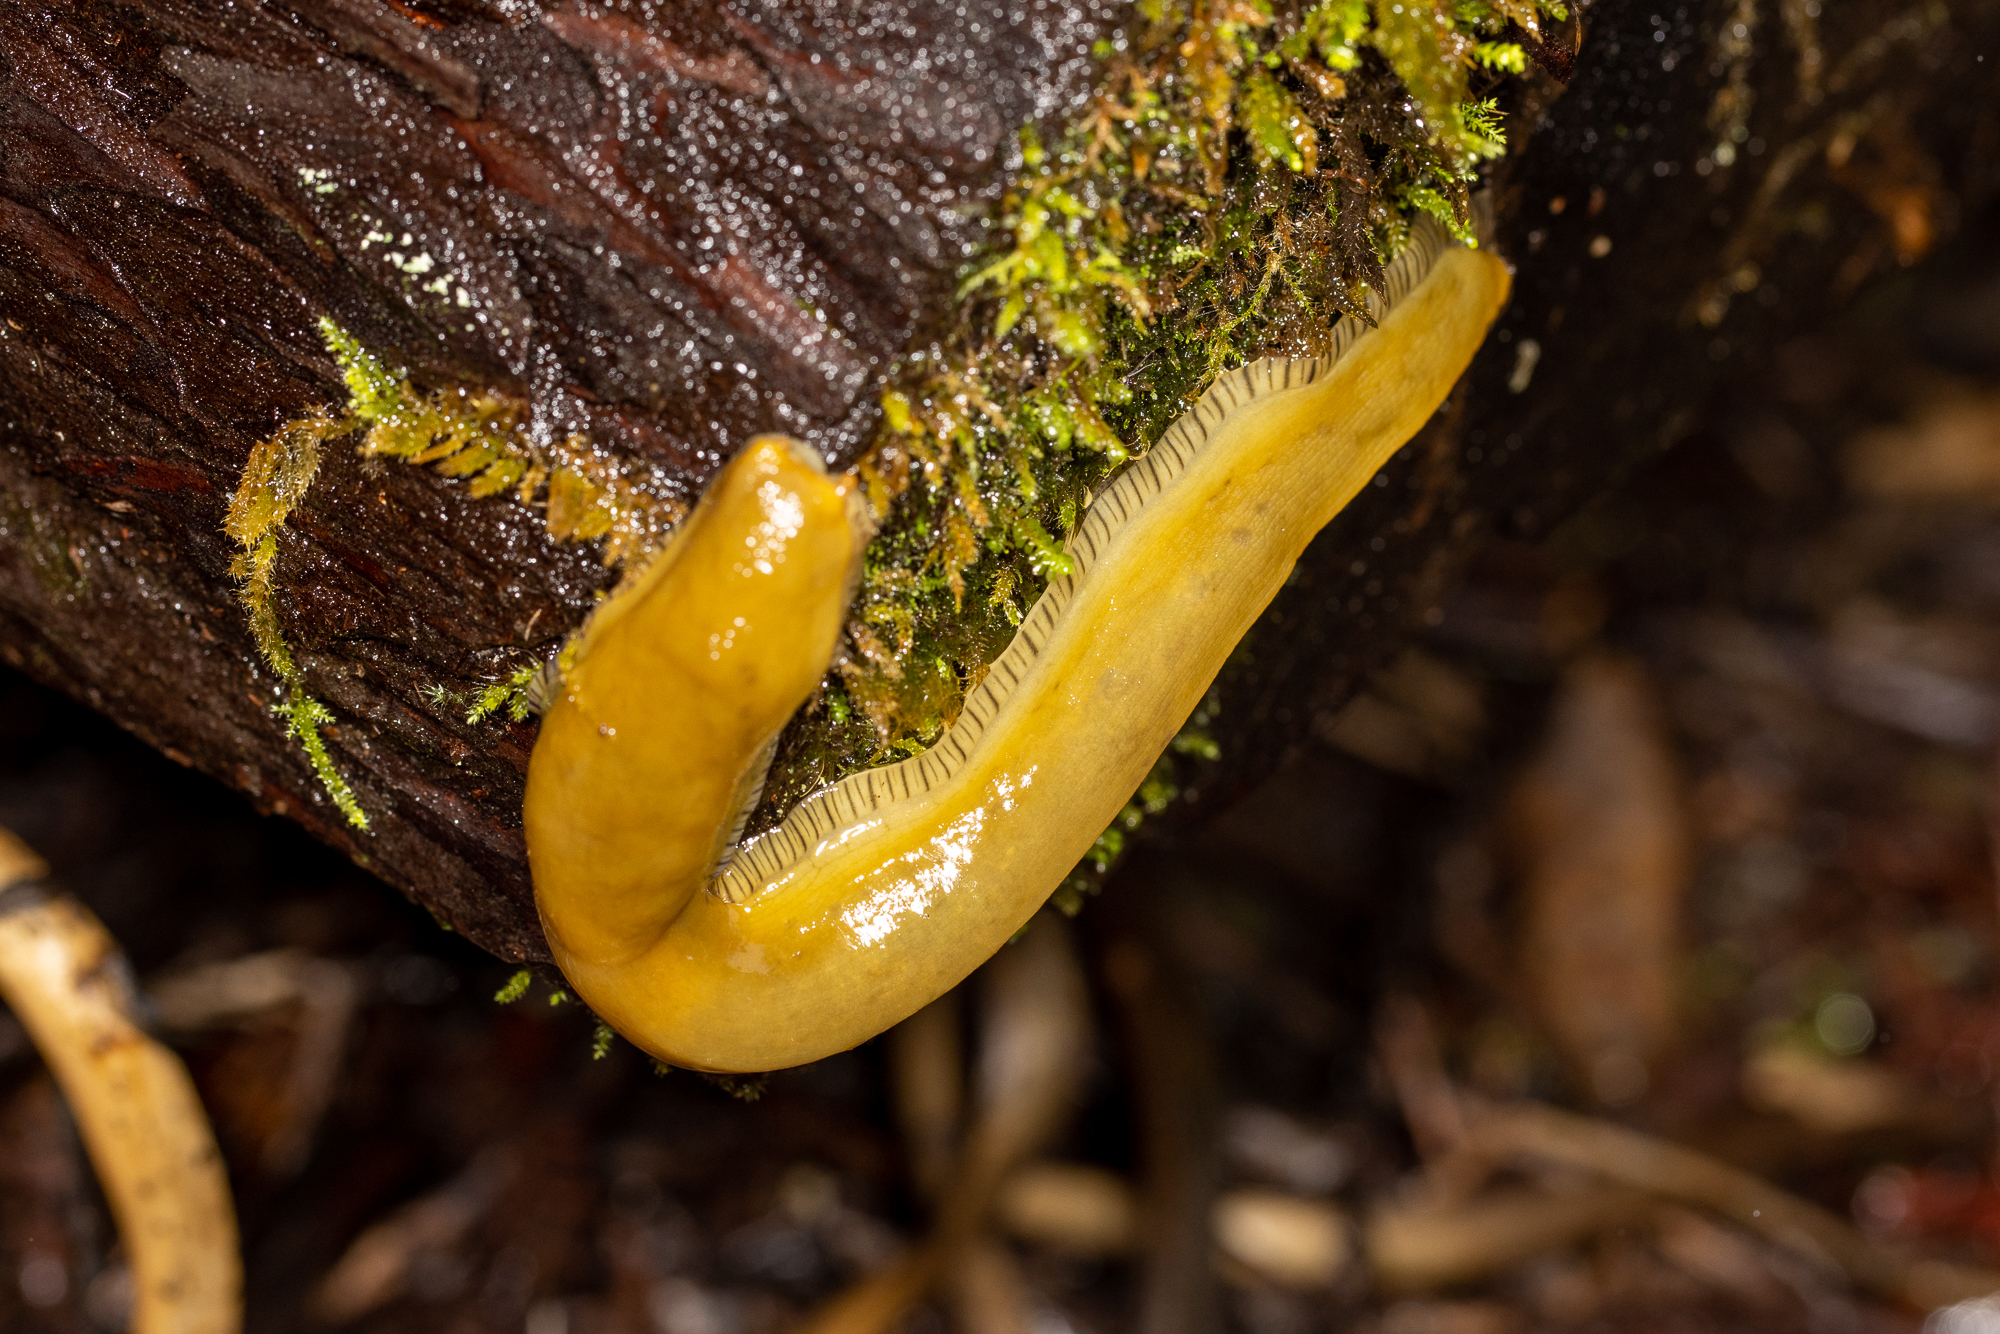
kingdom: Animalia
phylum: Mollusca
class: Gastropoda
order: Stylommatophora
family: Ariolimacidae
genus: Ariolimax
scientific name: Ariolimax buttoni
